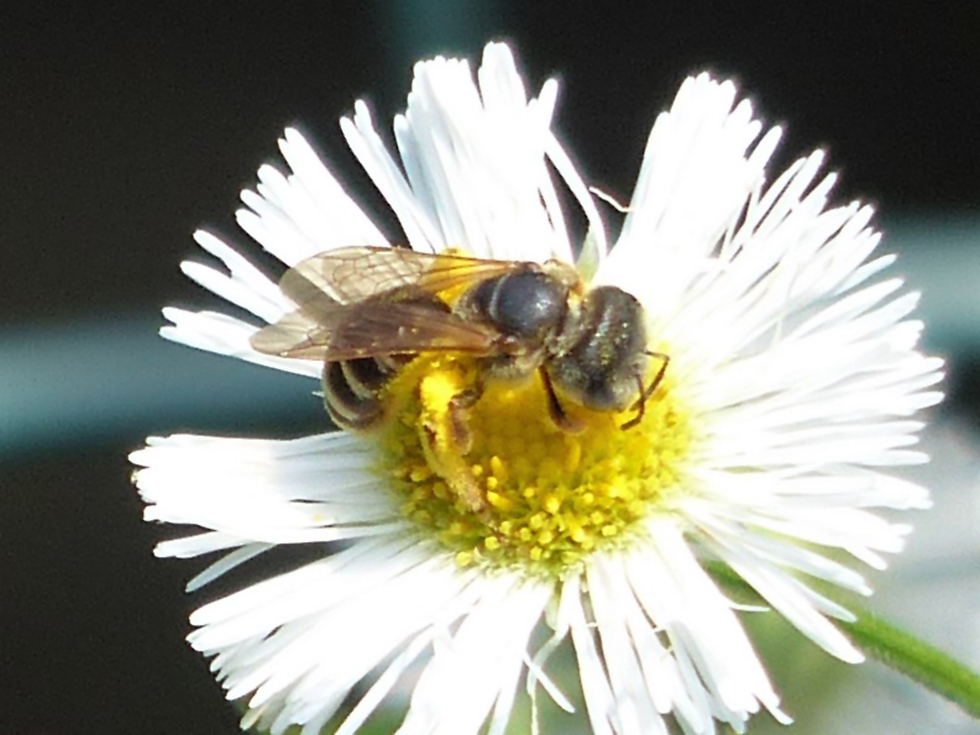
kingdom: Animalia
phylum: Arthropoda
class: Insecta
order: Hymenoptera
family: Halictidae
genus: Halictus
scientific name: Halictus ligatus
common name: Ligated furrow bee
